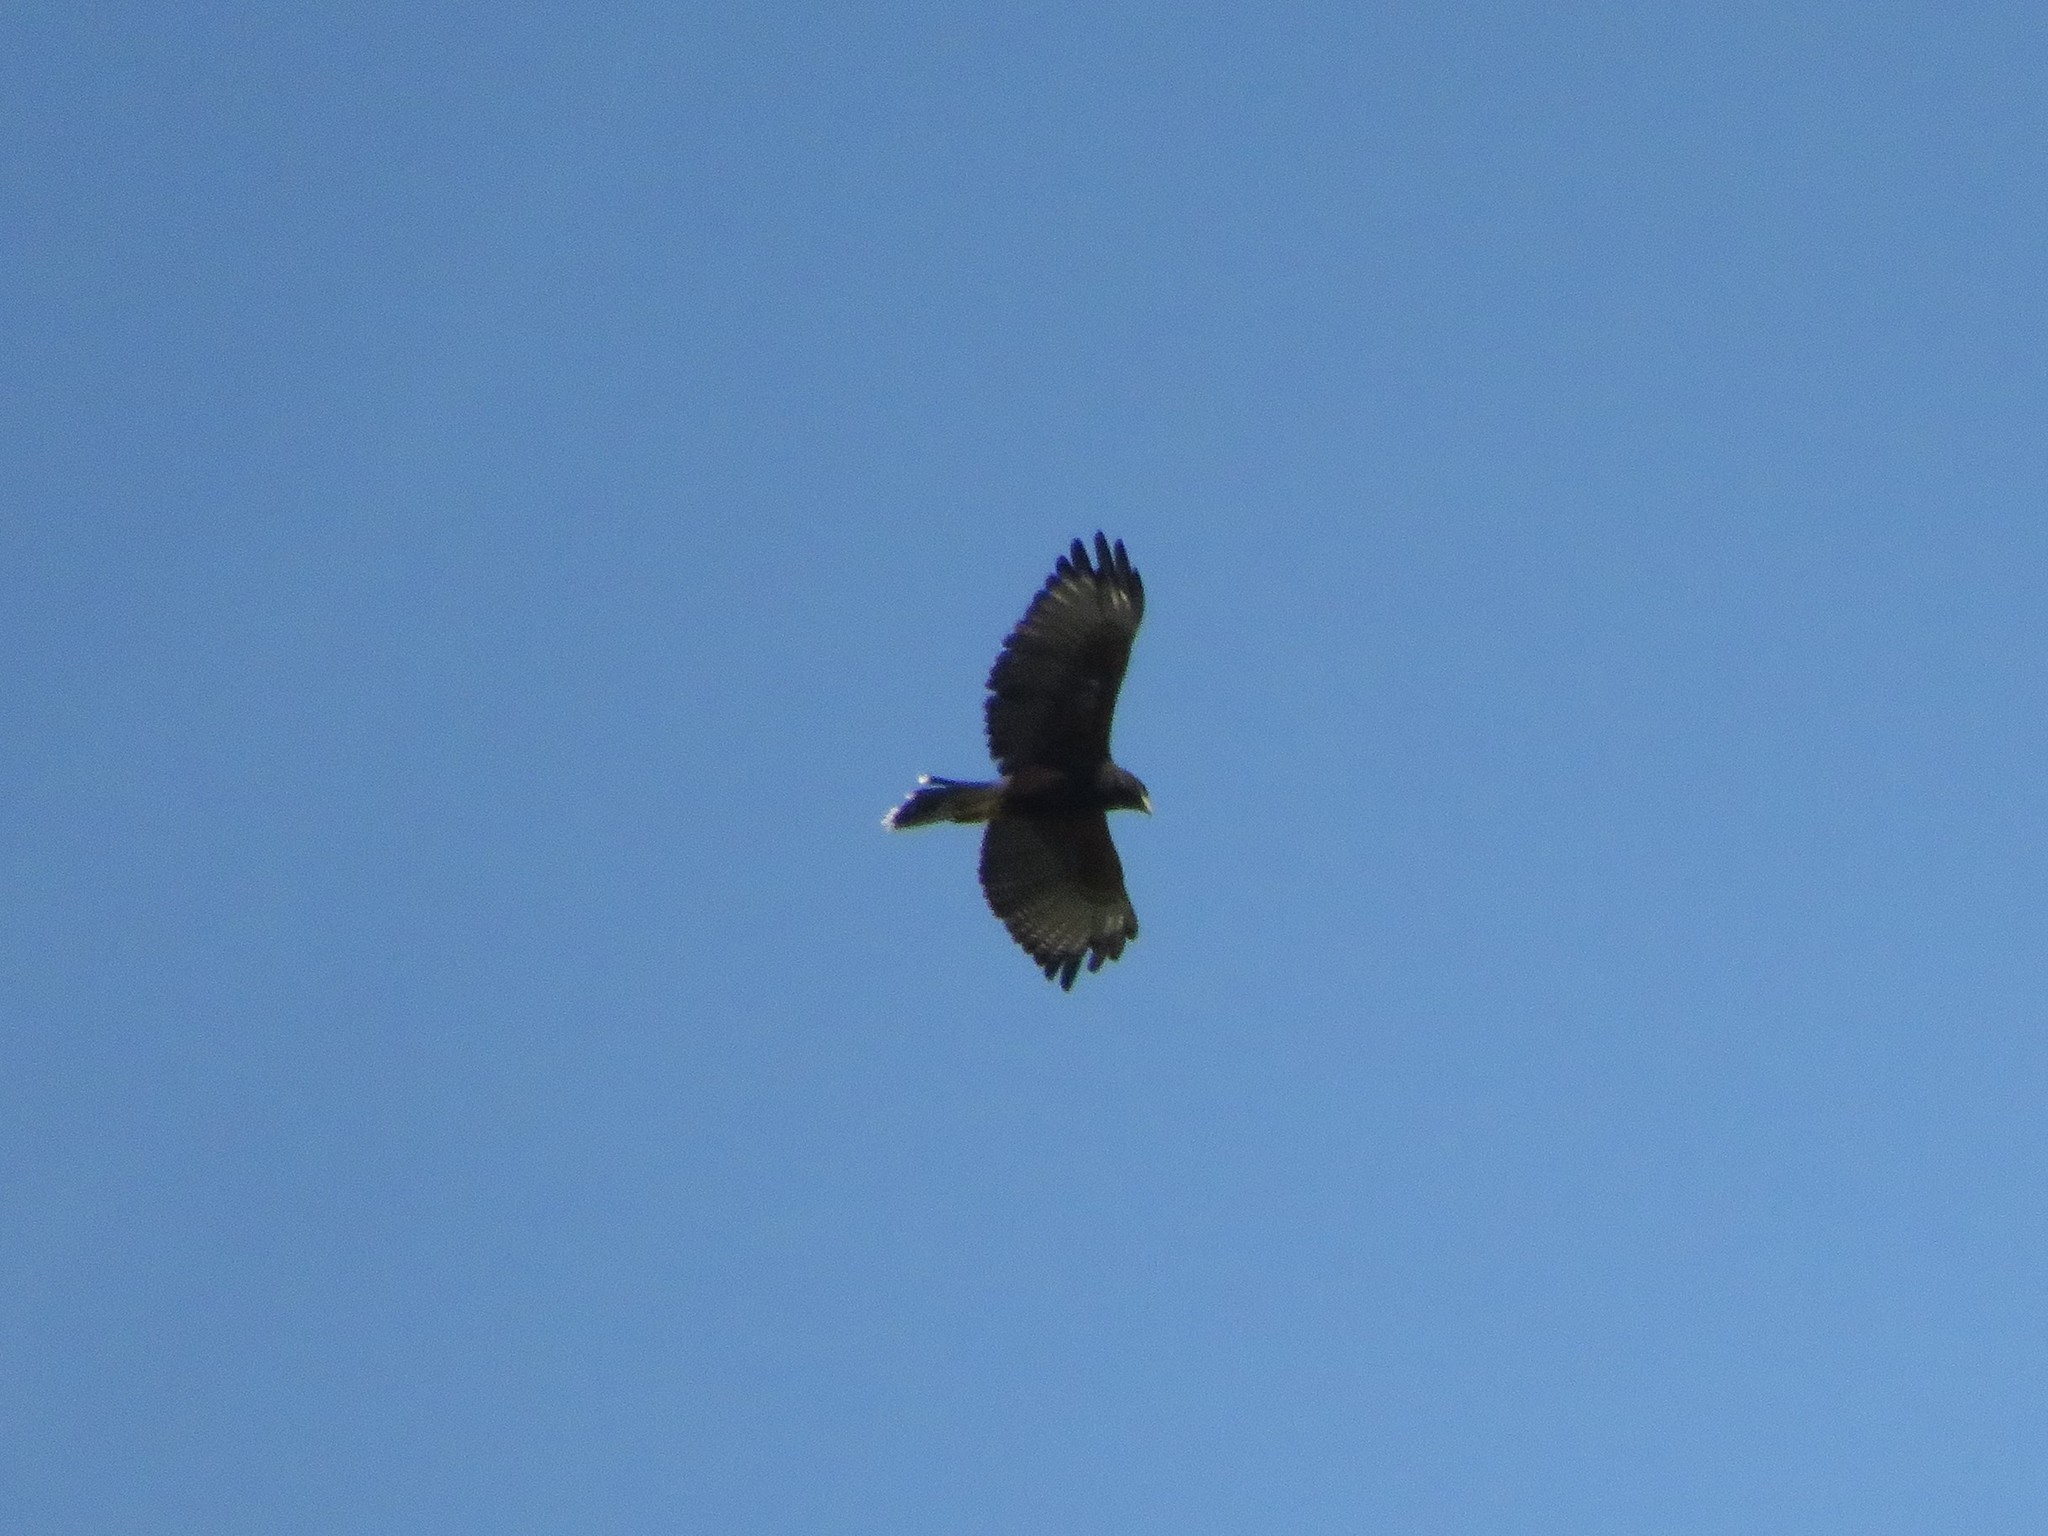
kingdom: Animalia
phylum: Chordata
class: Aves
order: Accipitriformes
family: Accipitridae
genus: Parabuteo
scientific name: Parabuteo unicinctus
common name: Harris's hawk
